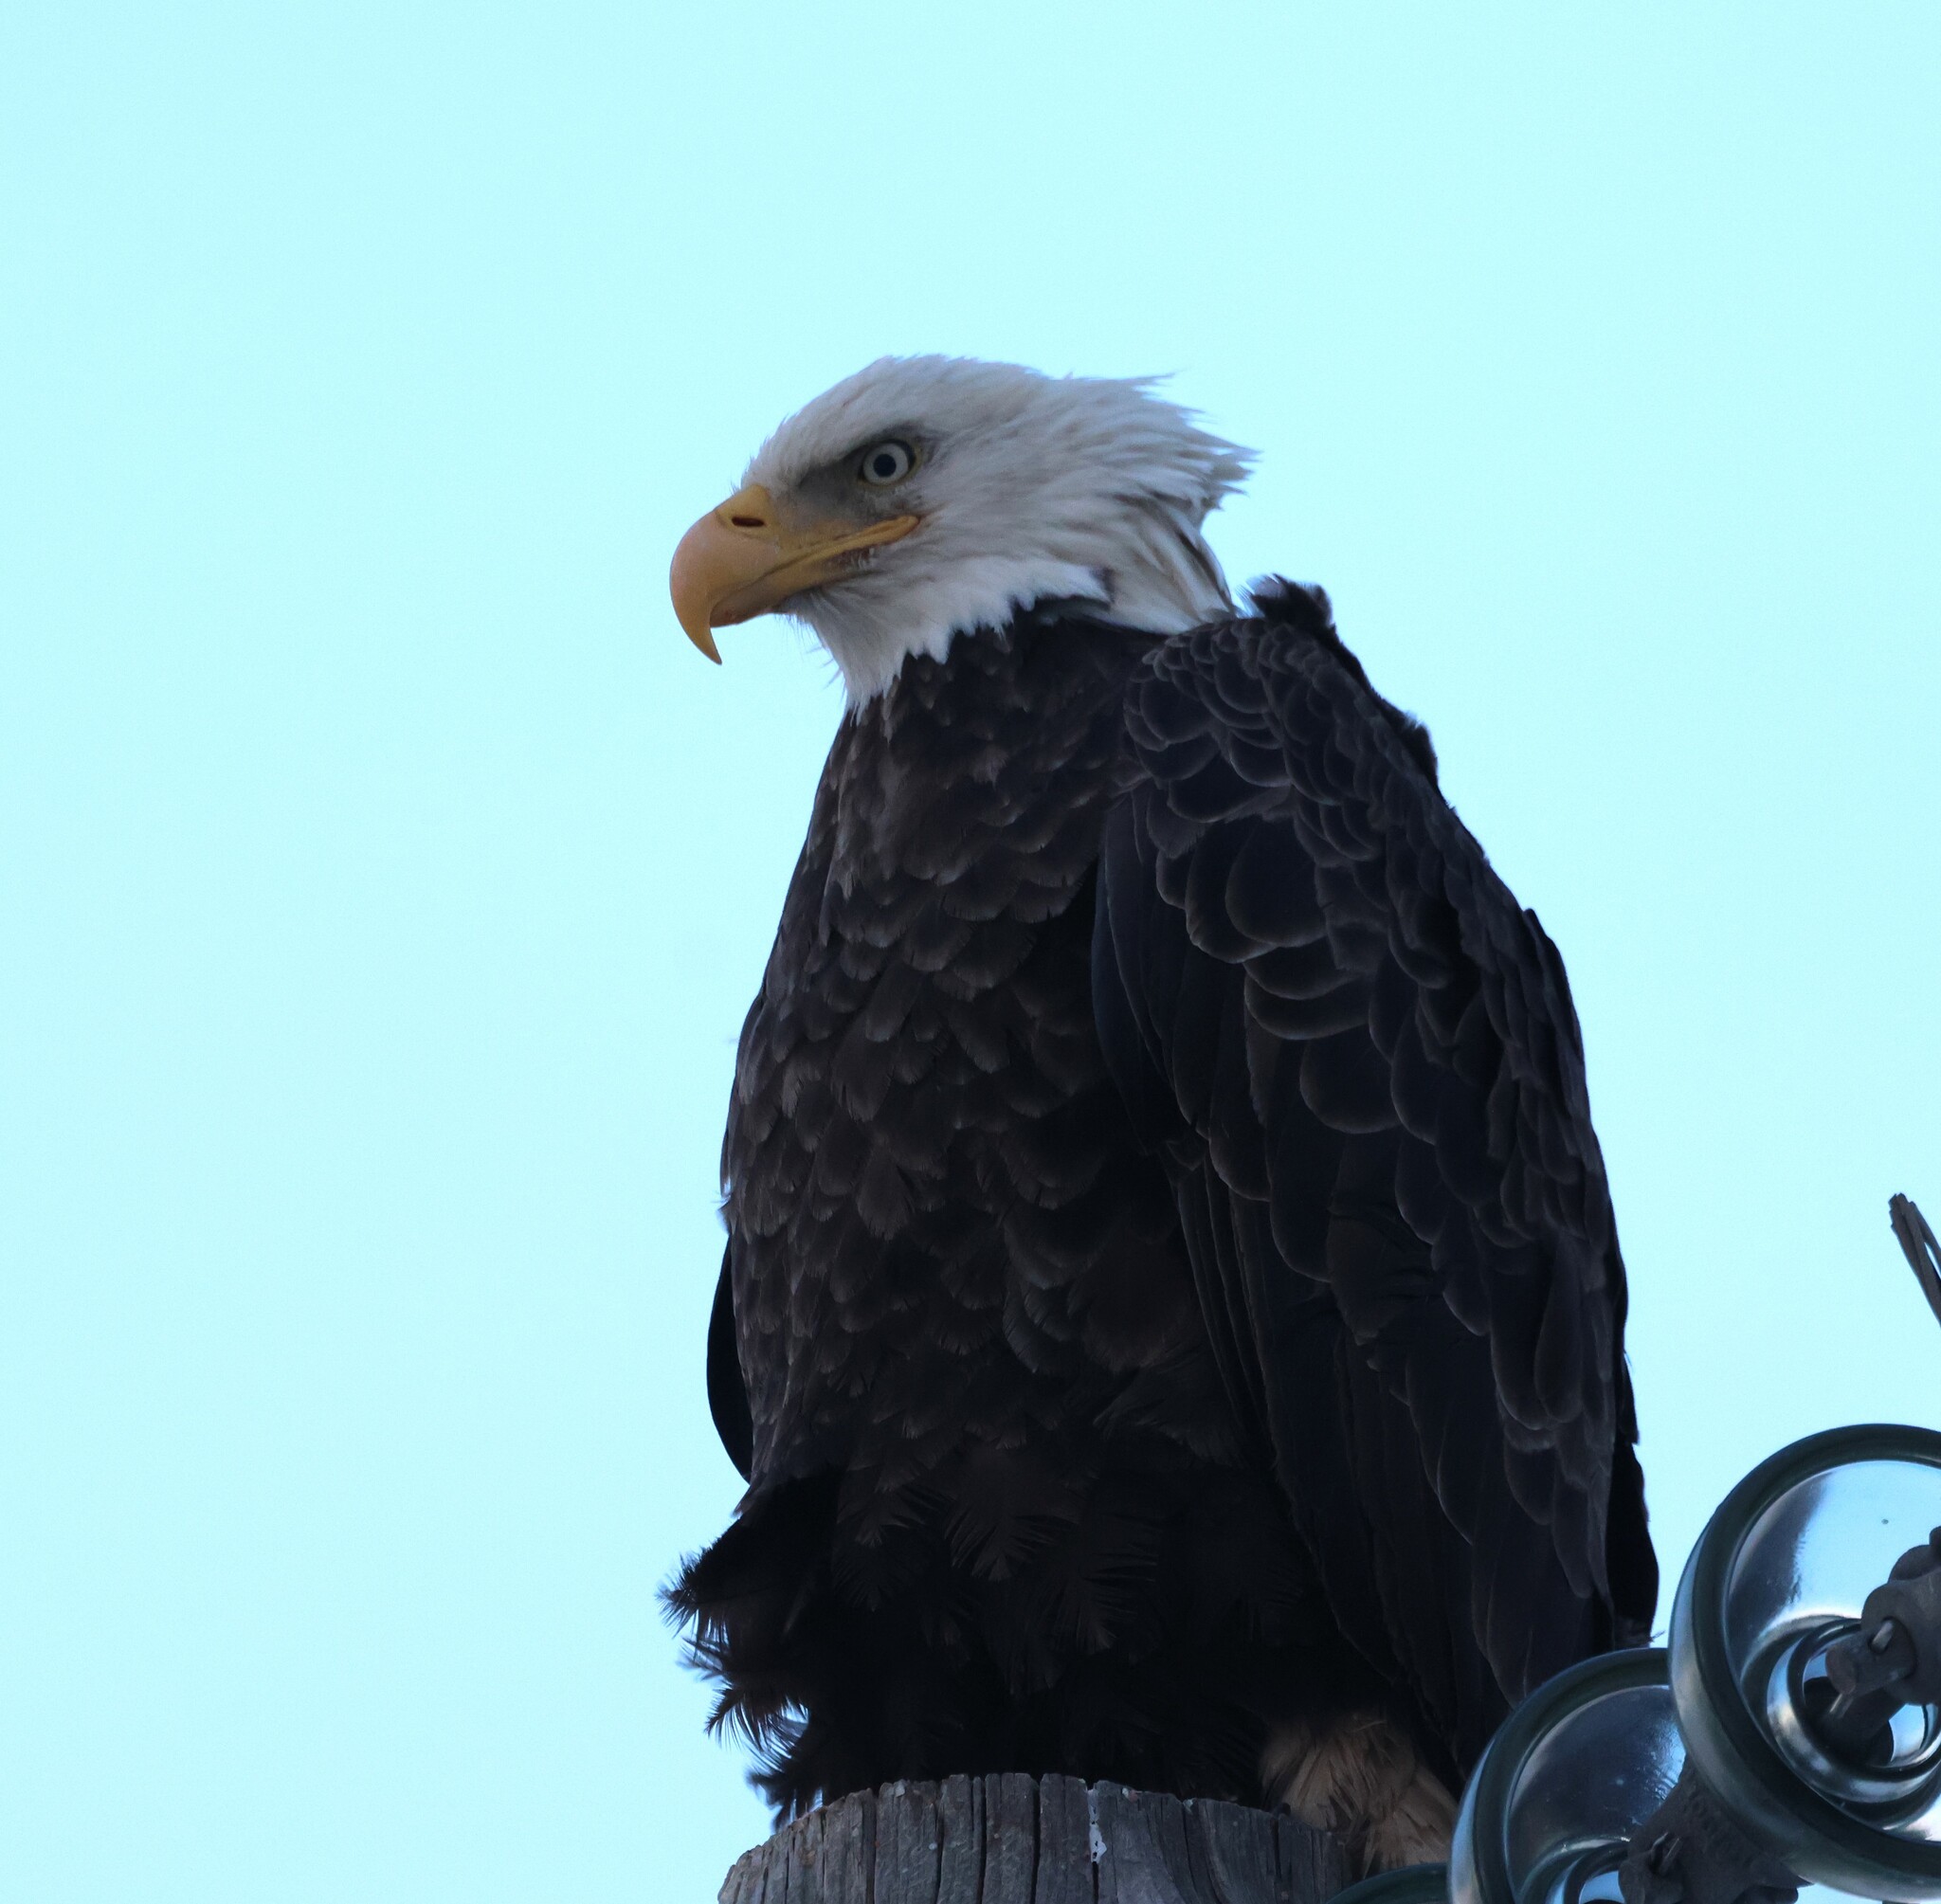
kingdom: Animalia
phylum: Chordata
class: Aves
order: Accipitriformes
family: Accipitridae
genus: Haliaeetus
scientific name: Haliaeetus leucocephalus
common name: Bald eagle
